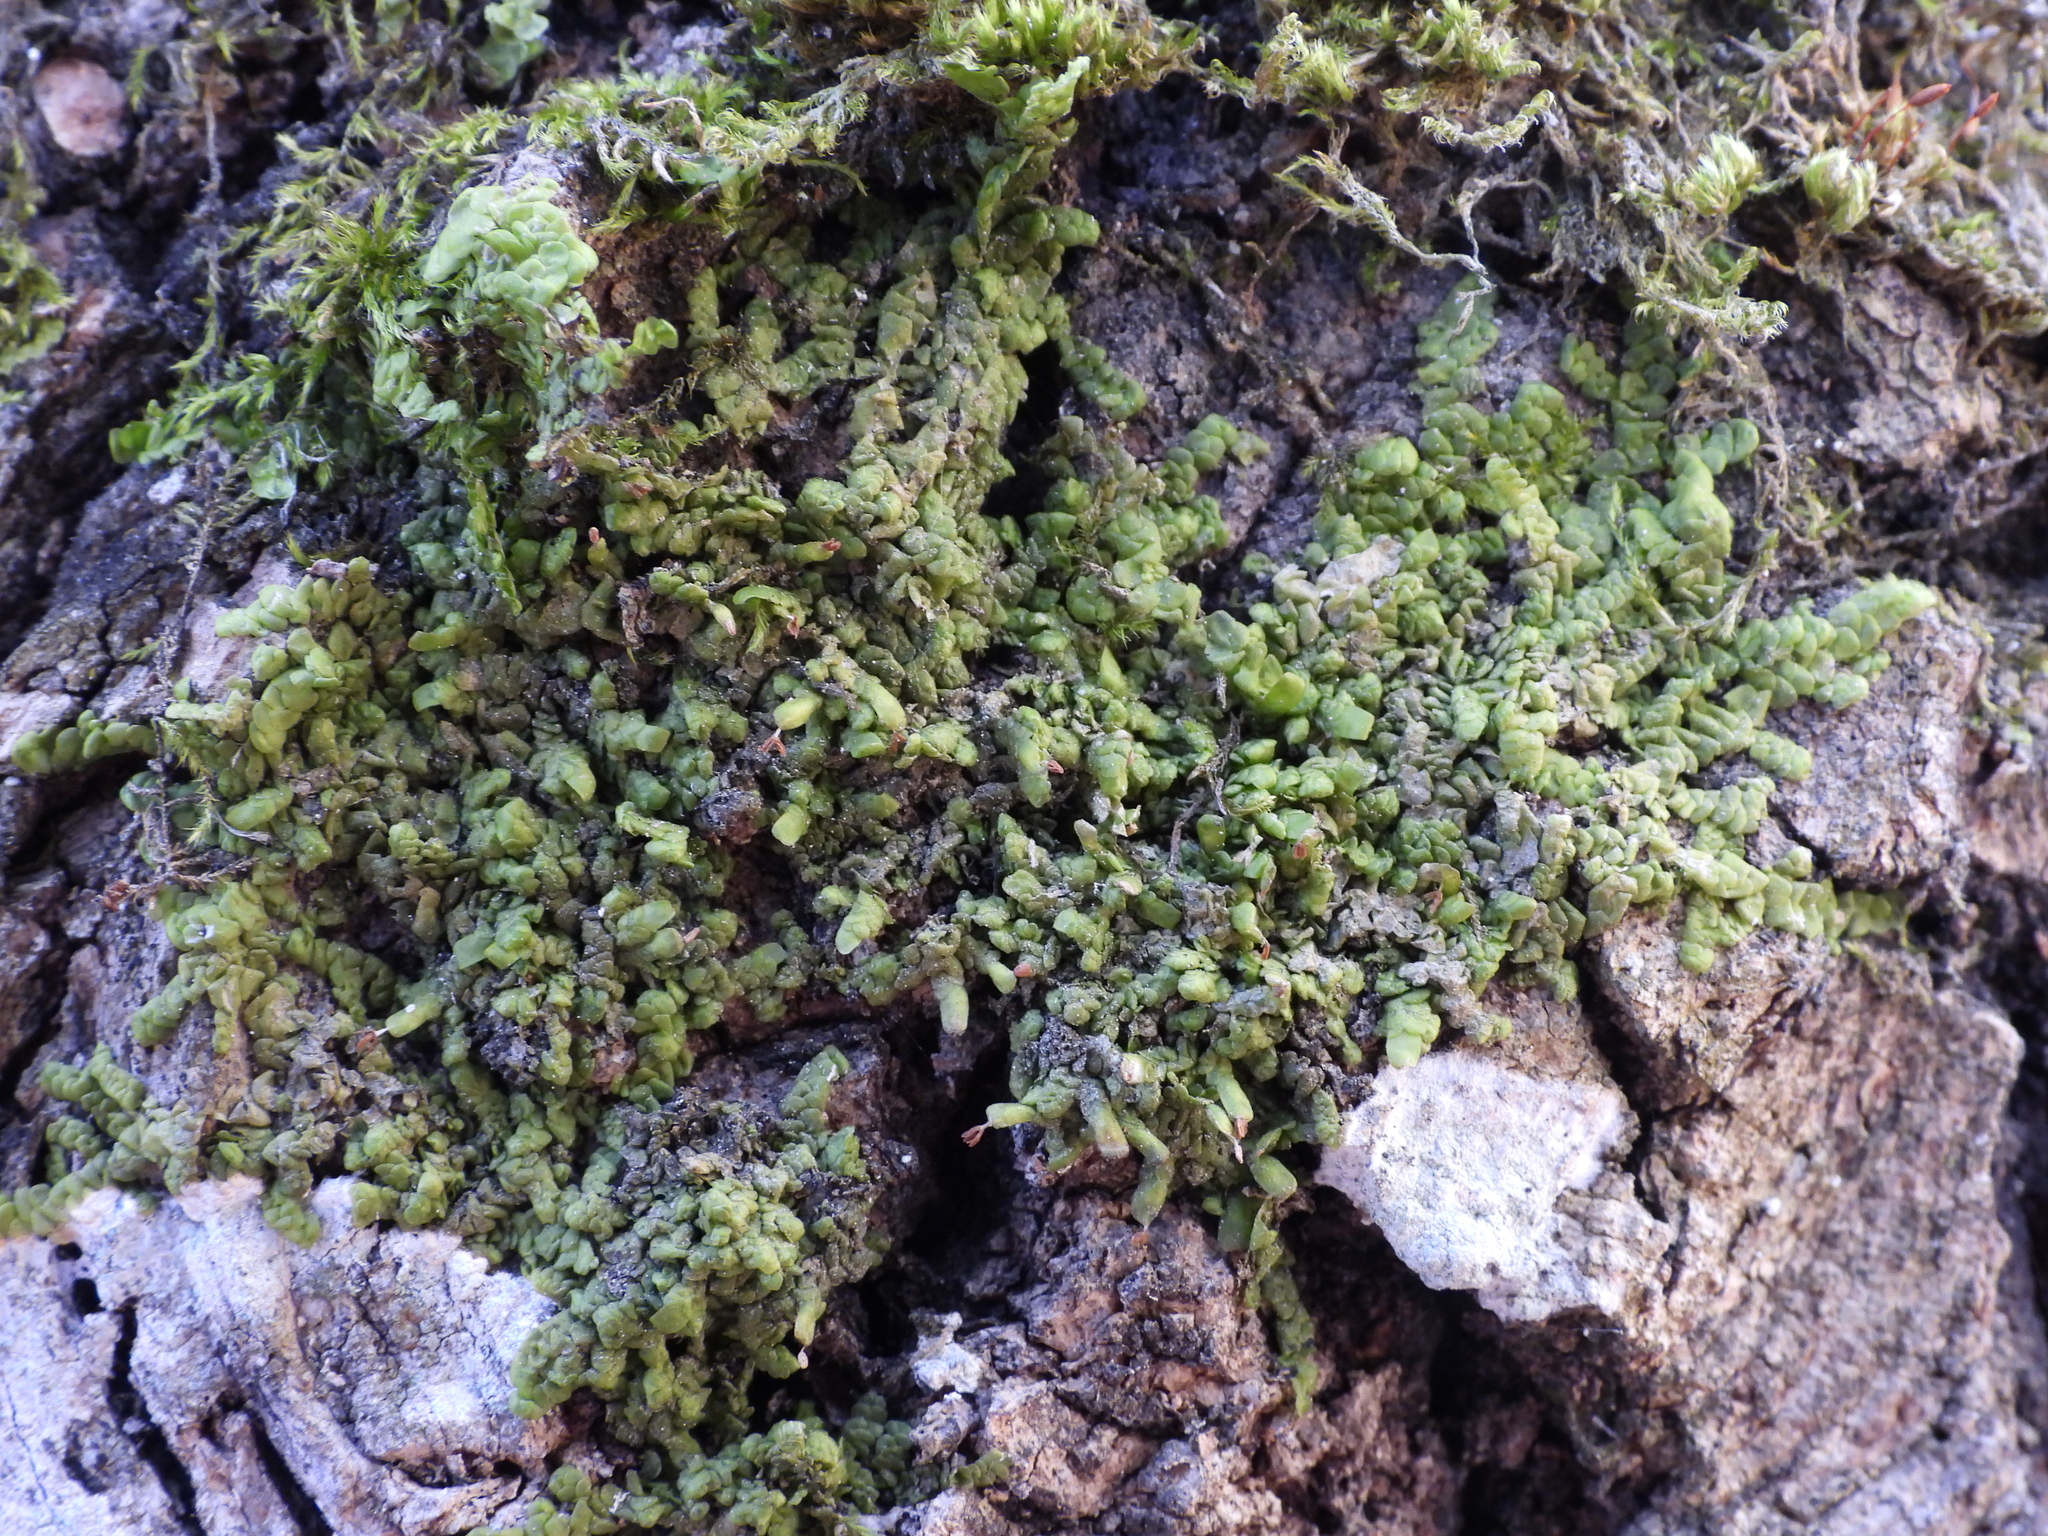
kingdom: Plantae
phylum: Marchantiophyta
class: Jungermanniopsida
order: Porellales
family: Radulaceae
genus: Radula
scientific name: Radula complanata
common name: Flat-leaved scalewort
